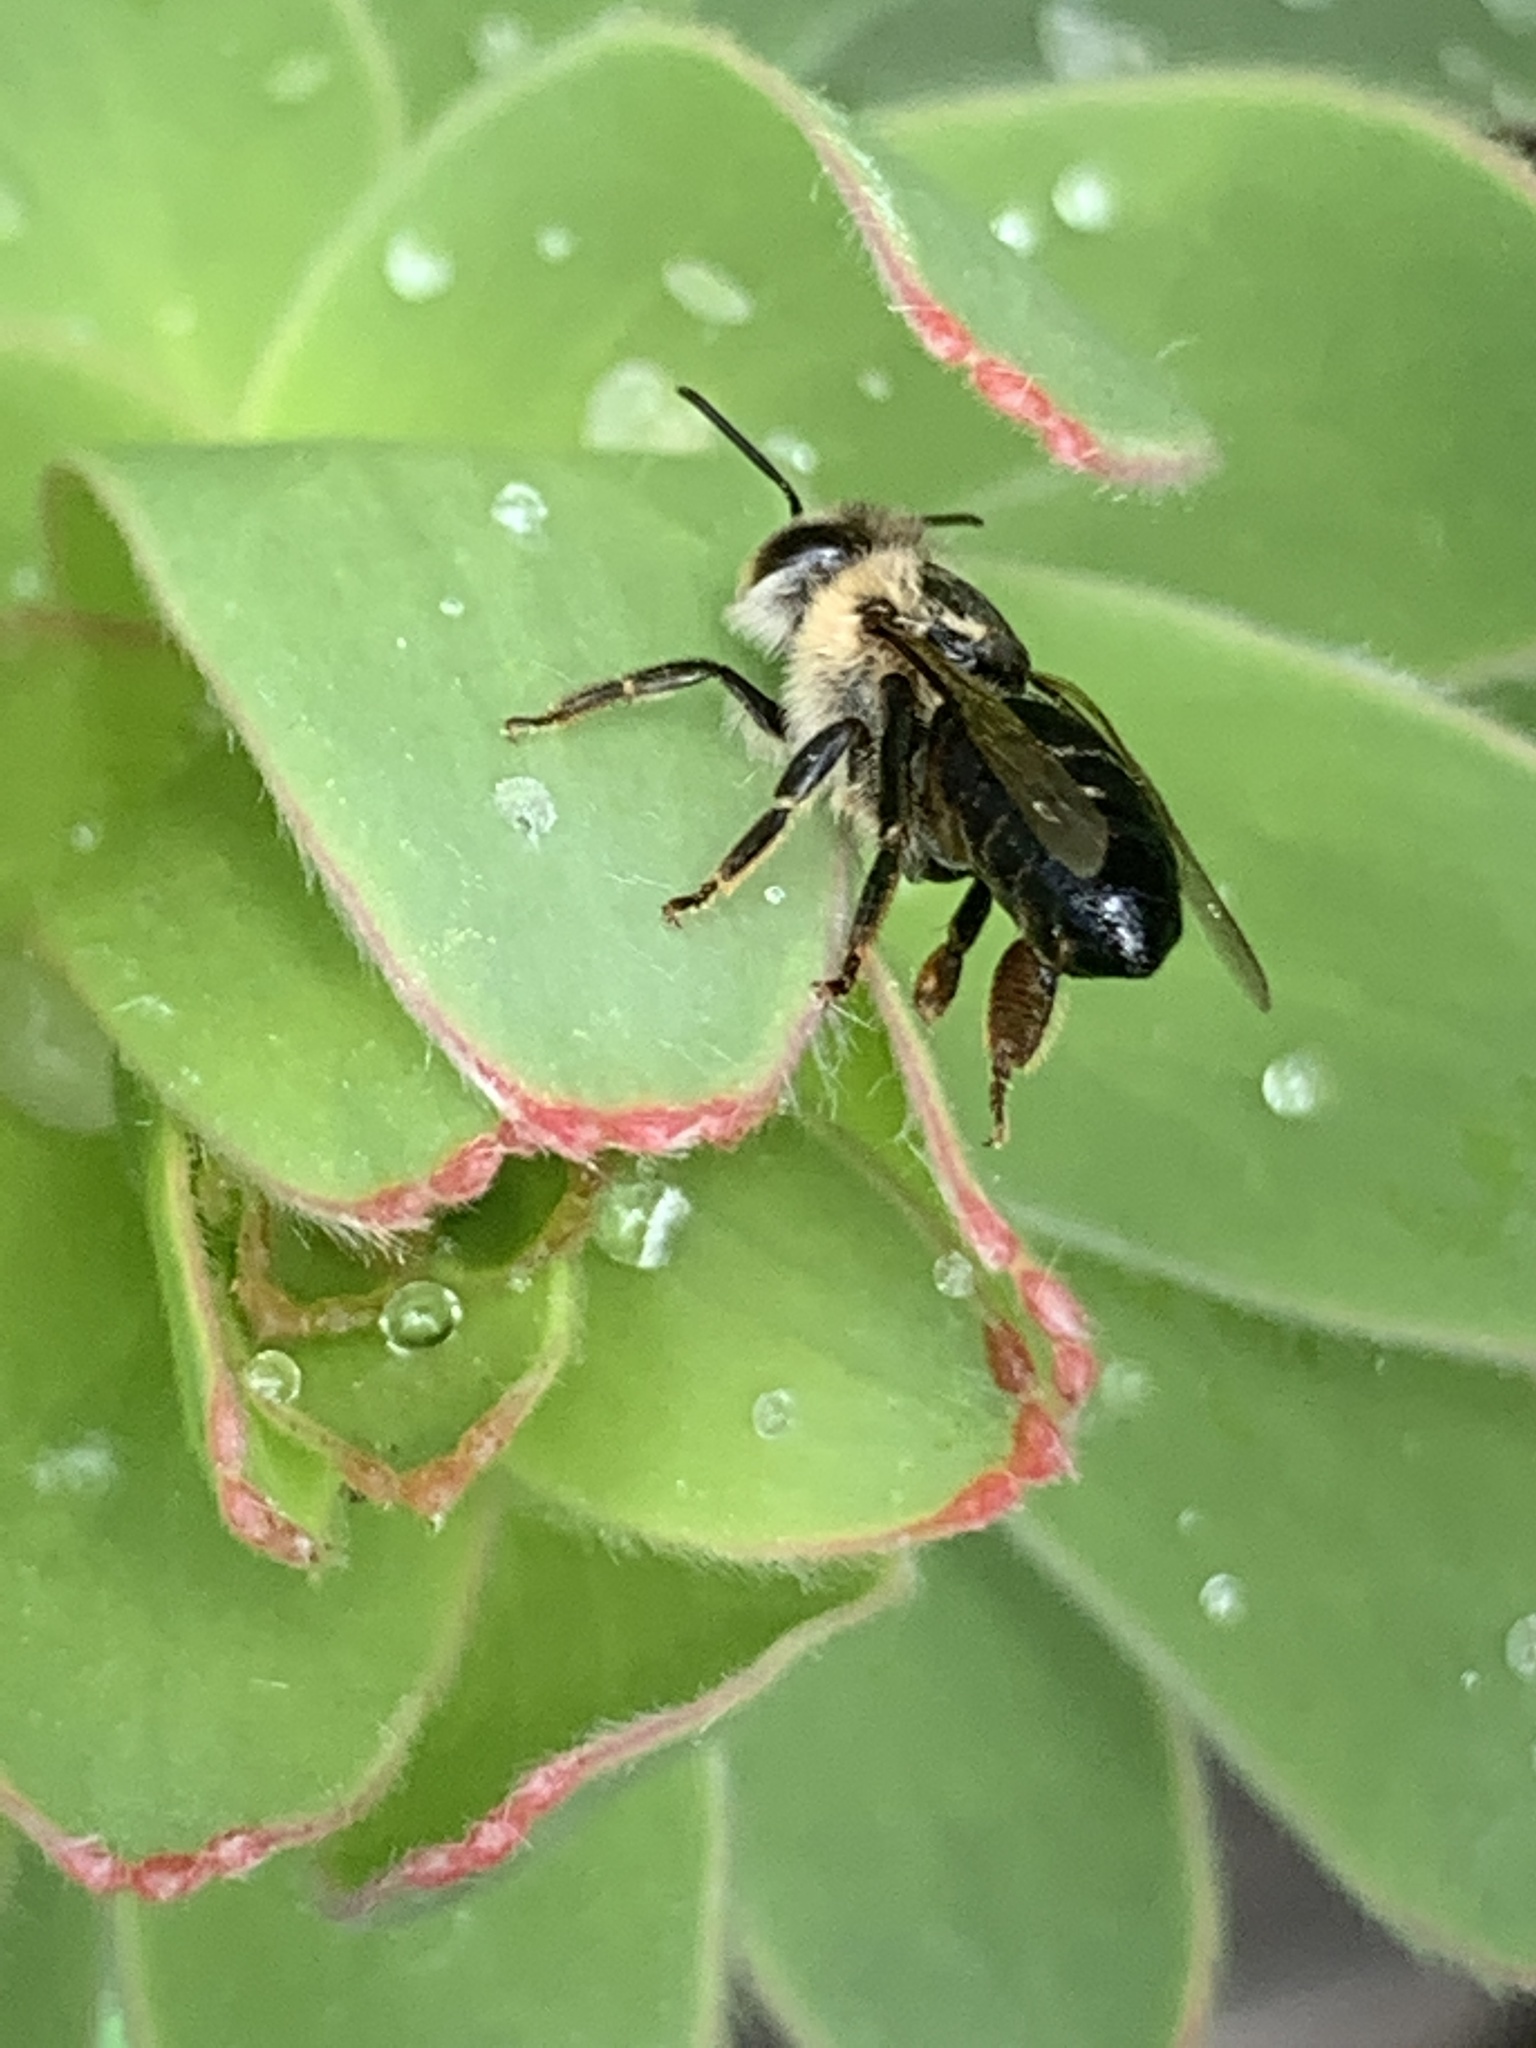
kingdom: Animalia
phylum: Arthropoda
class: Insecta
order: Hymenoptera
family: Apidae
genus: Apis
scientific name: Apis mellifera
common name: Honey bee
